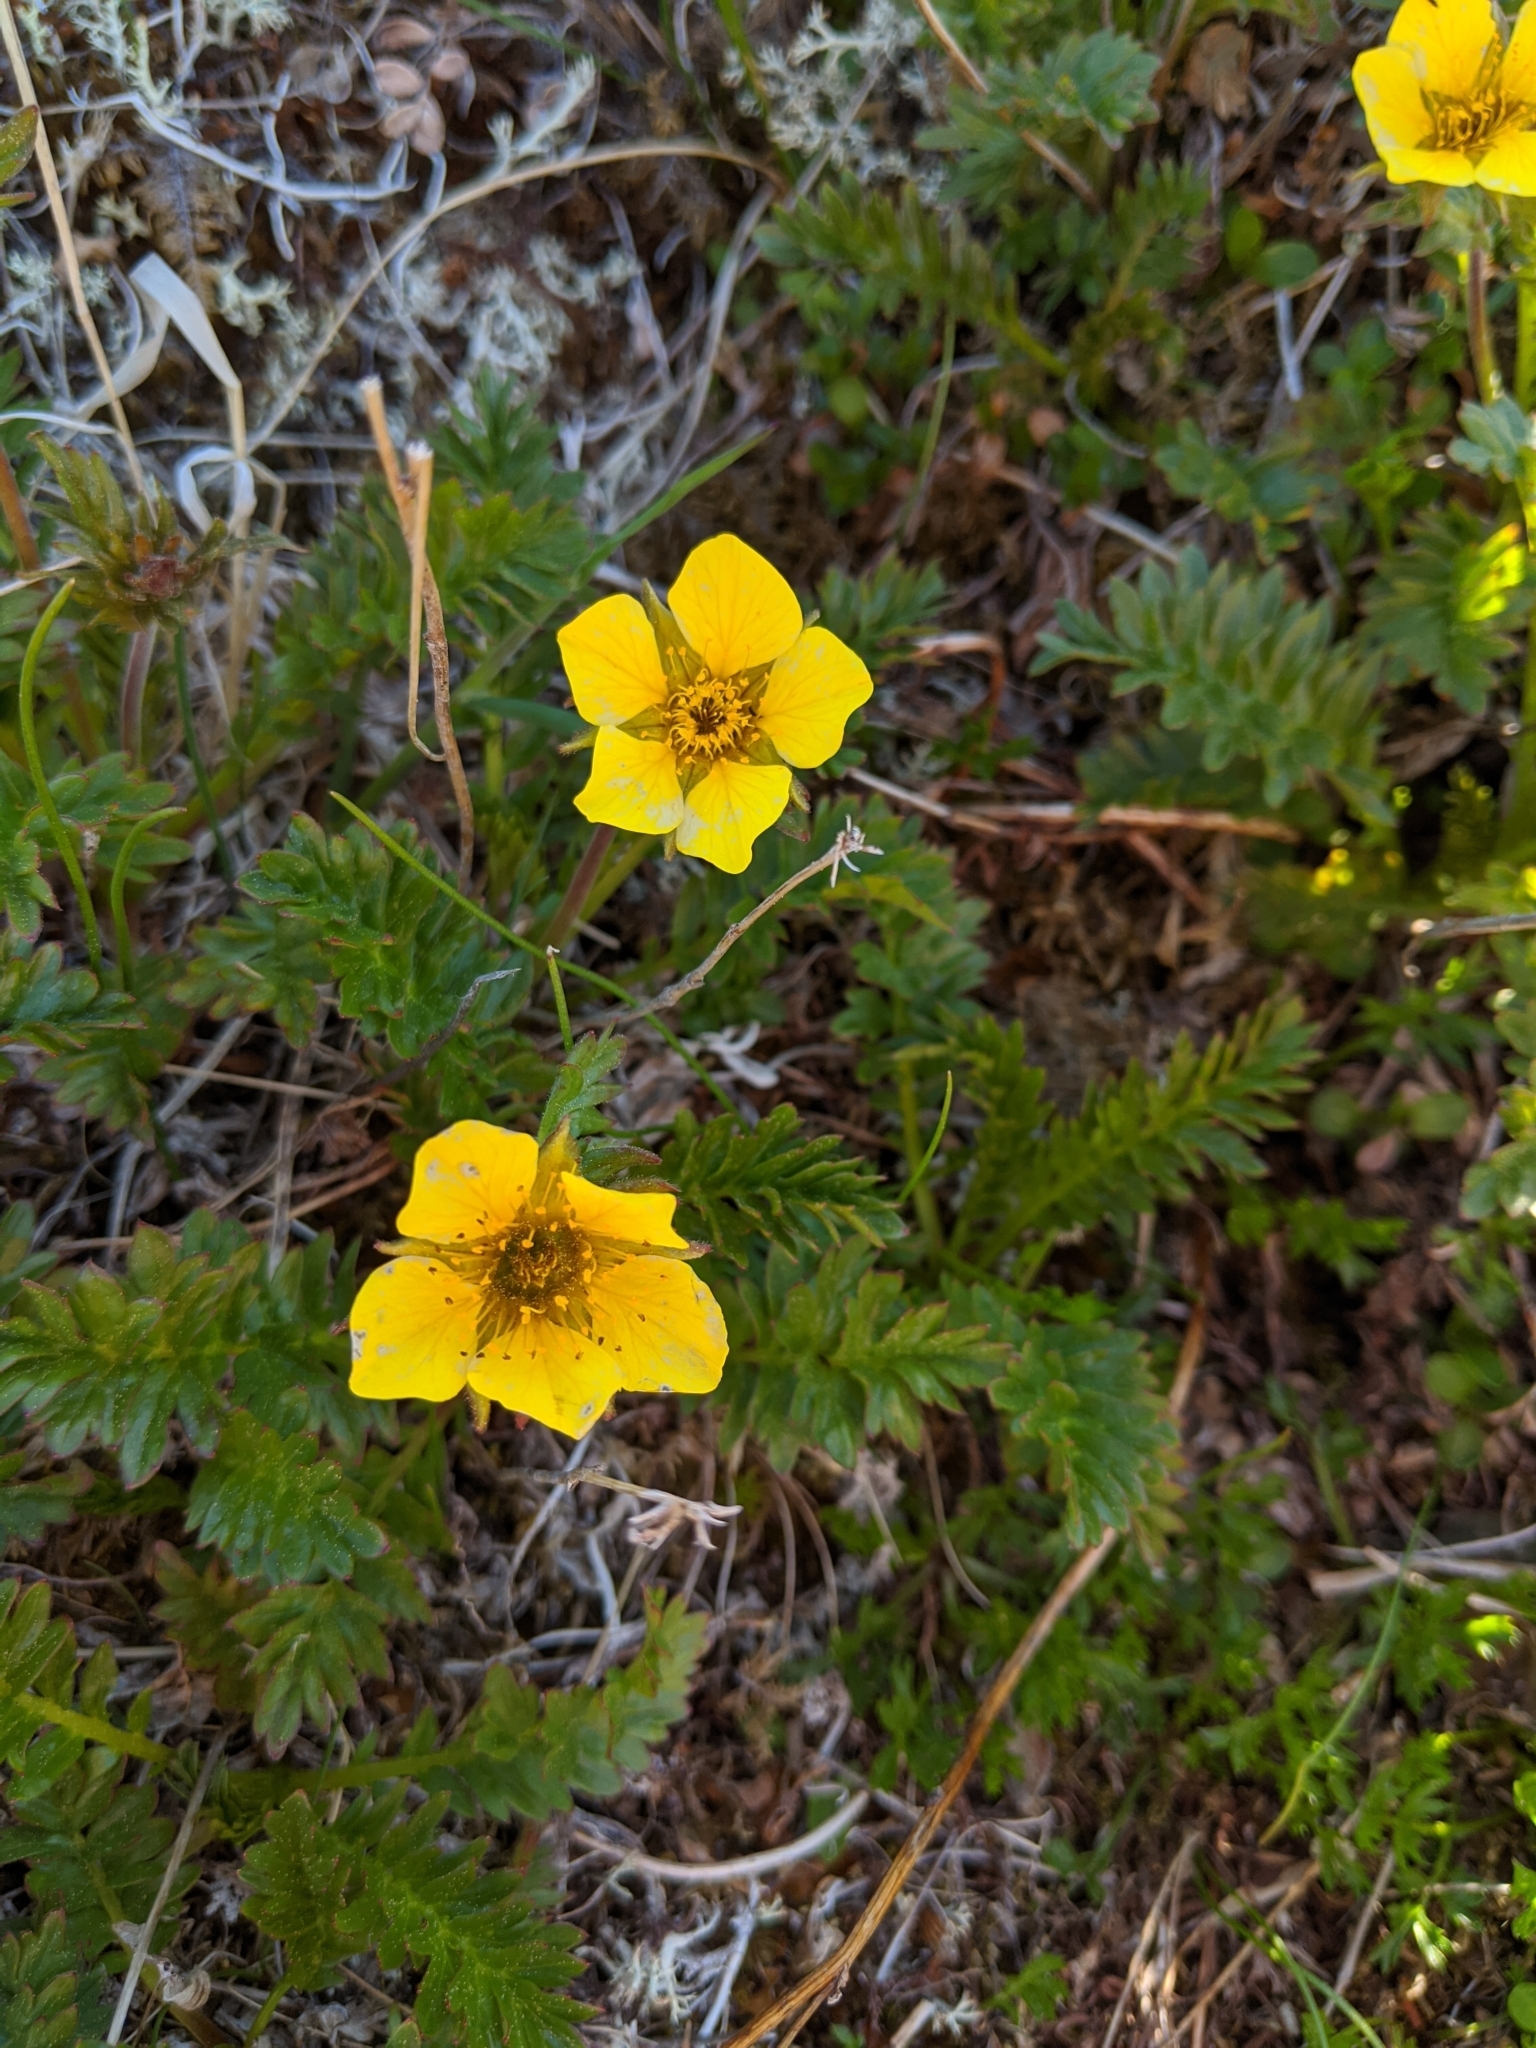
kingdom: Plantae
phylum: Tracheophyta
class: Magnoliopsida
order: Rosales
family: Rosaceae
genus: Geum
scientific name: Geum rossii
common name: Alpine avens
